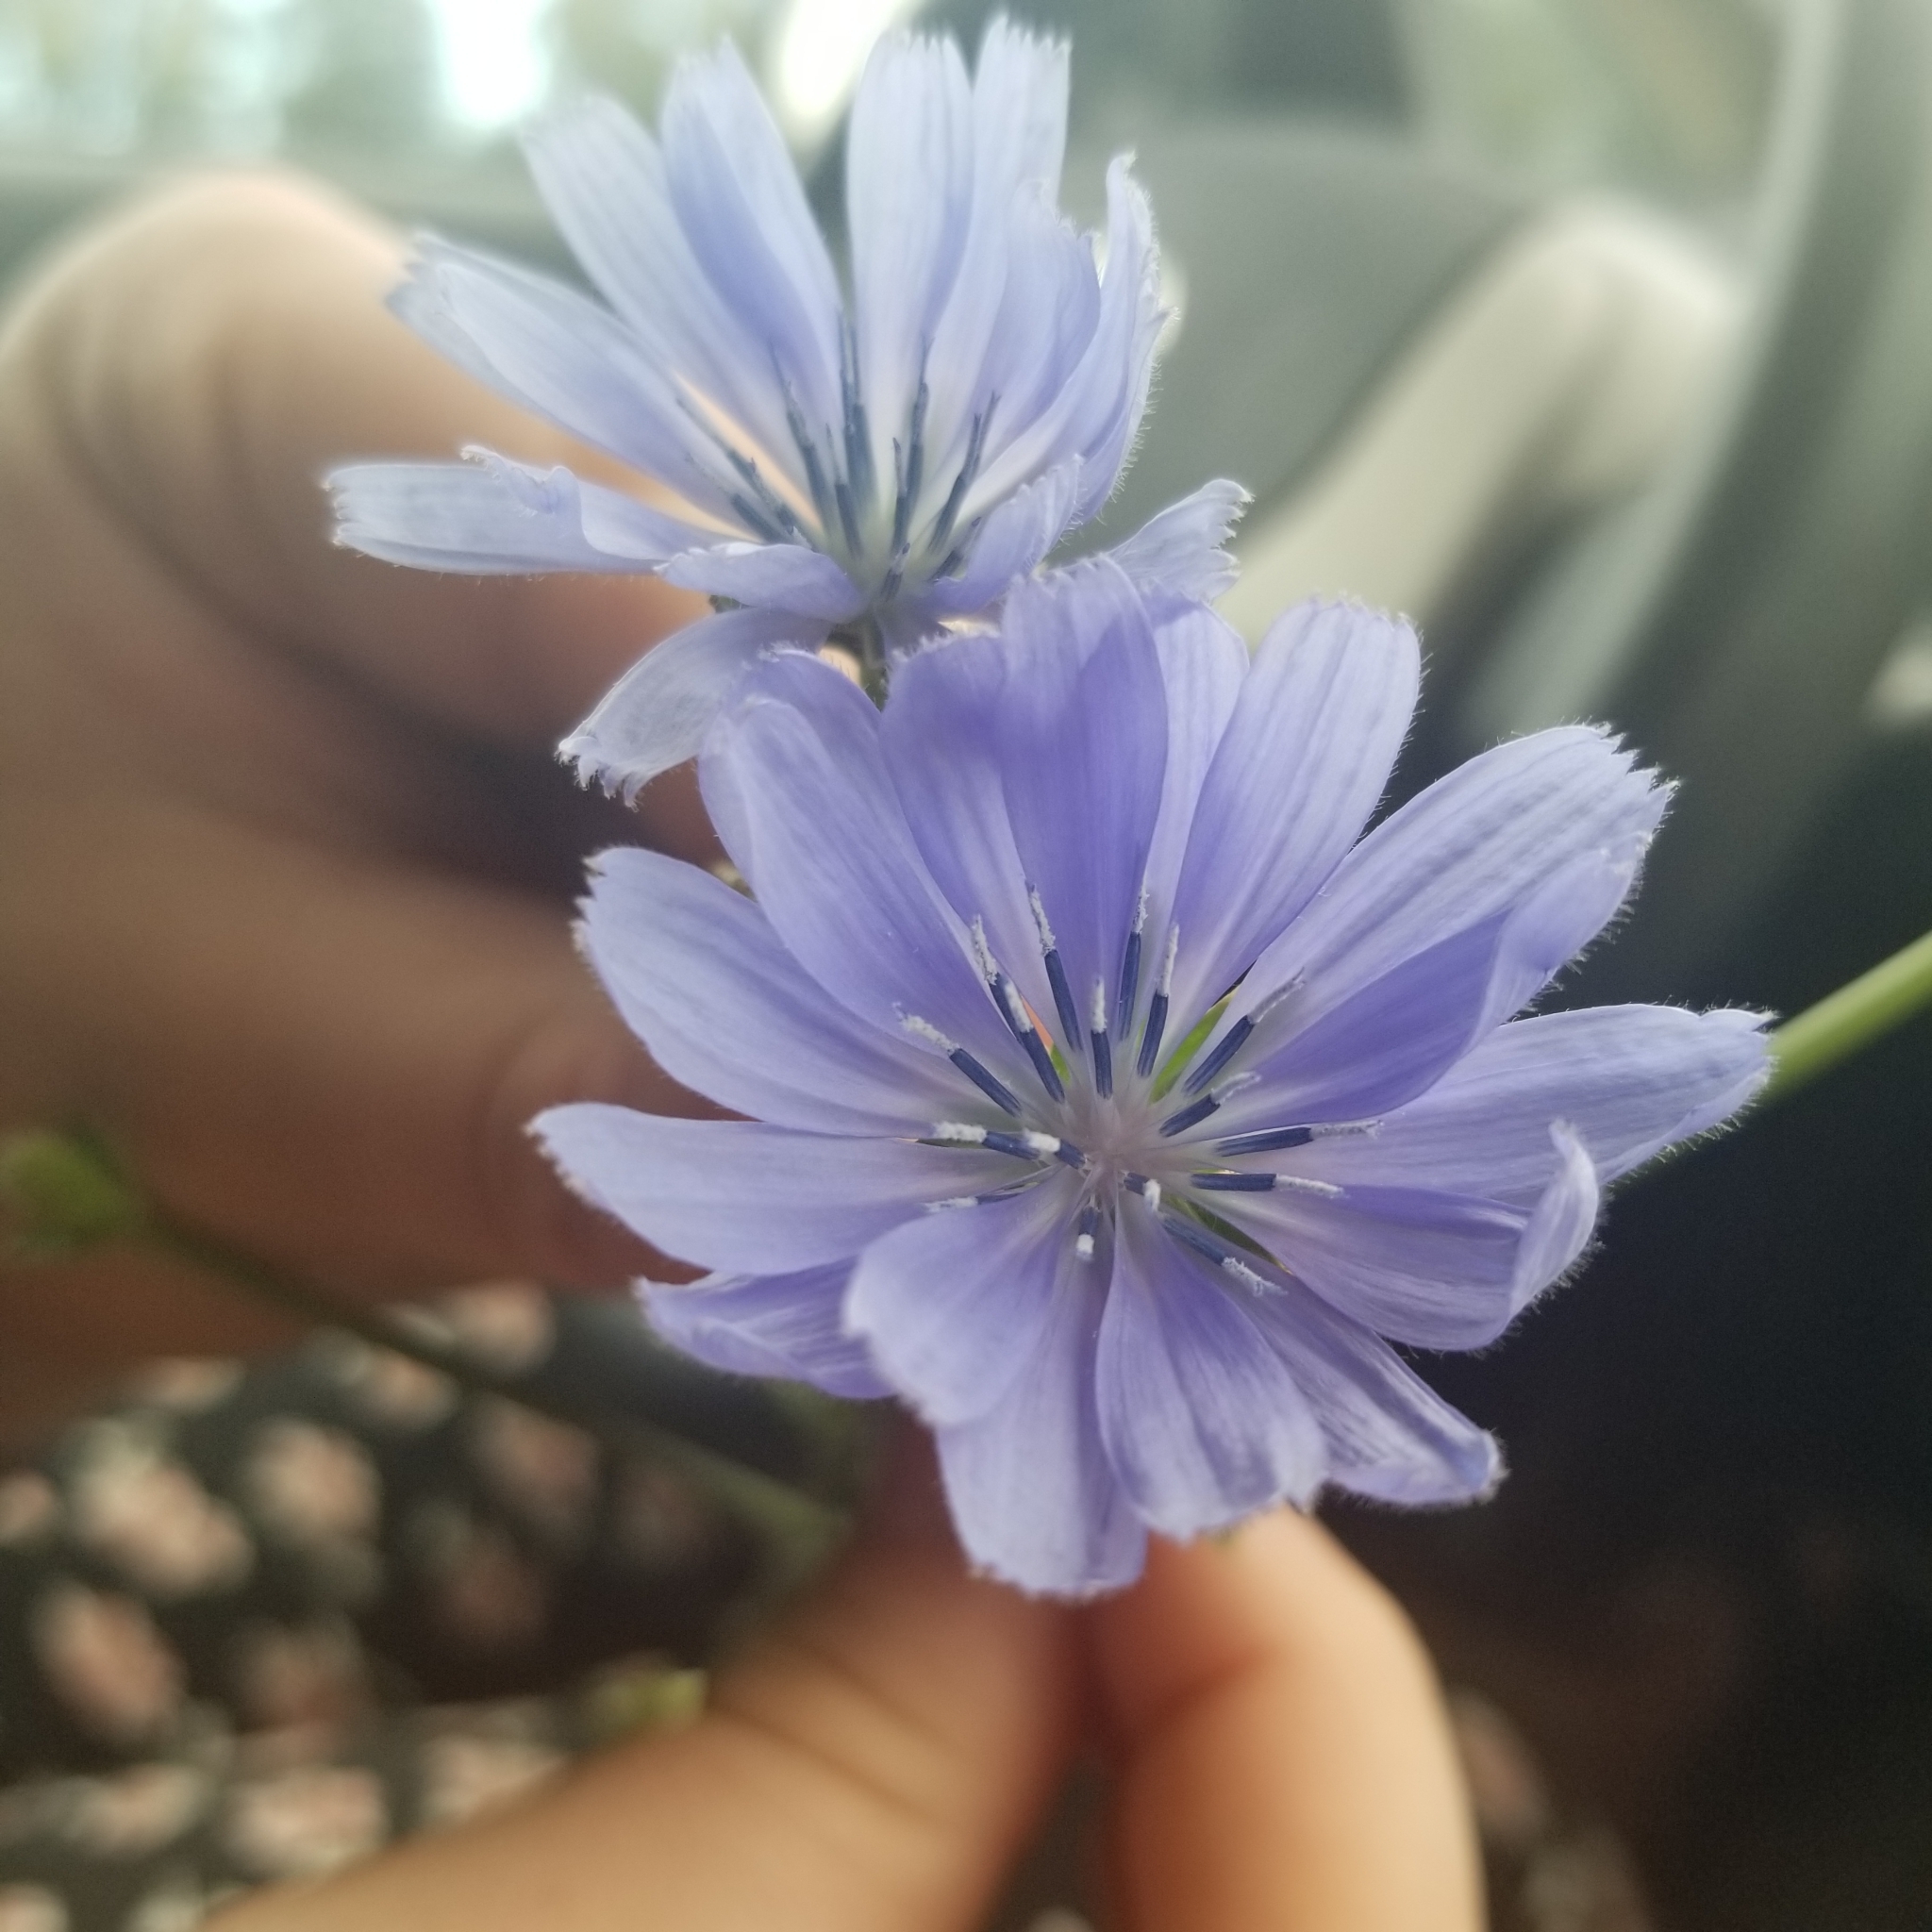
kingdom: Plantae
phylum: Tracheophyta
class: Magnoliopsida
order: Asterales
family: Asteraceae
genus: Cichorium
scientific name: Cichorium intybus
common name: Chicory
